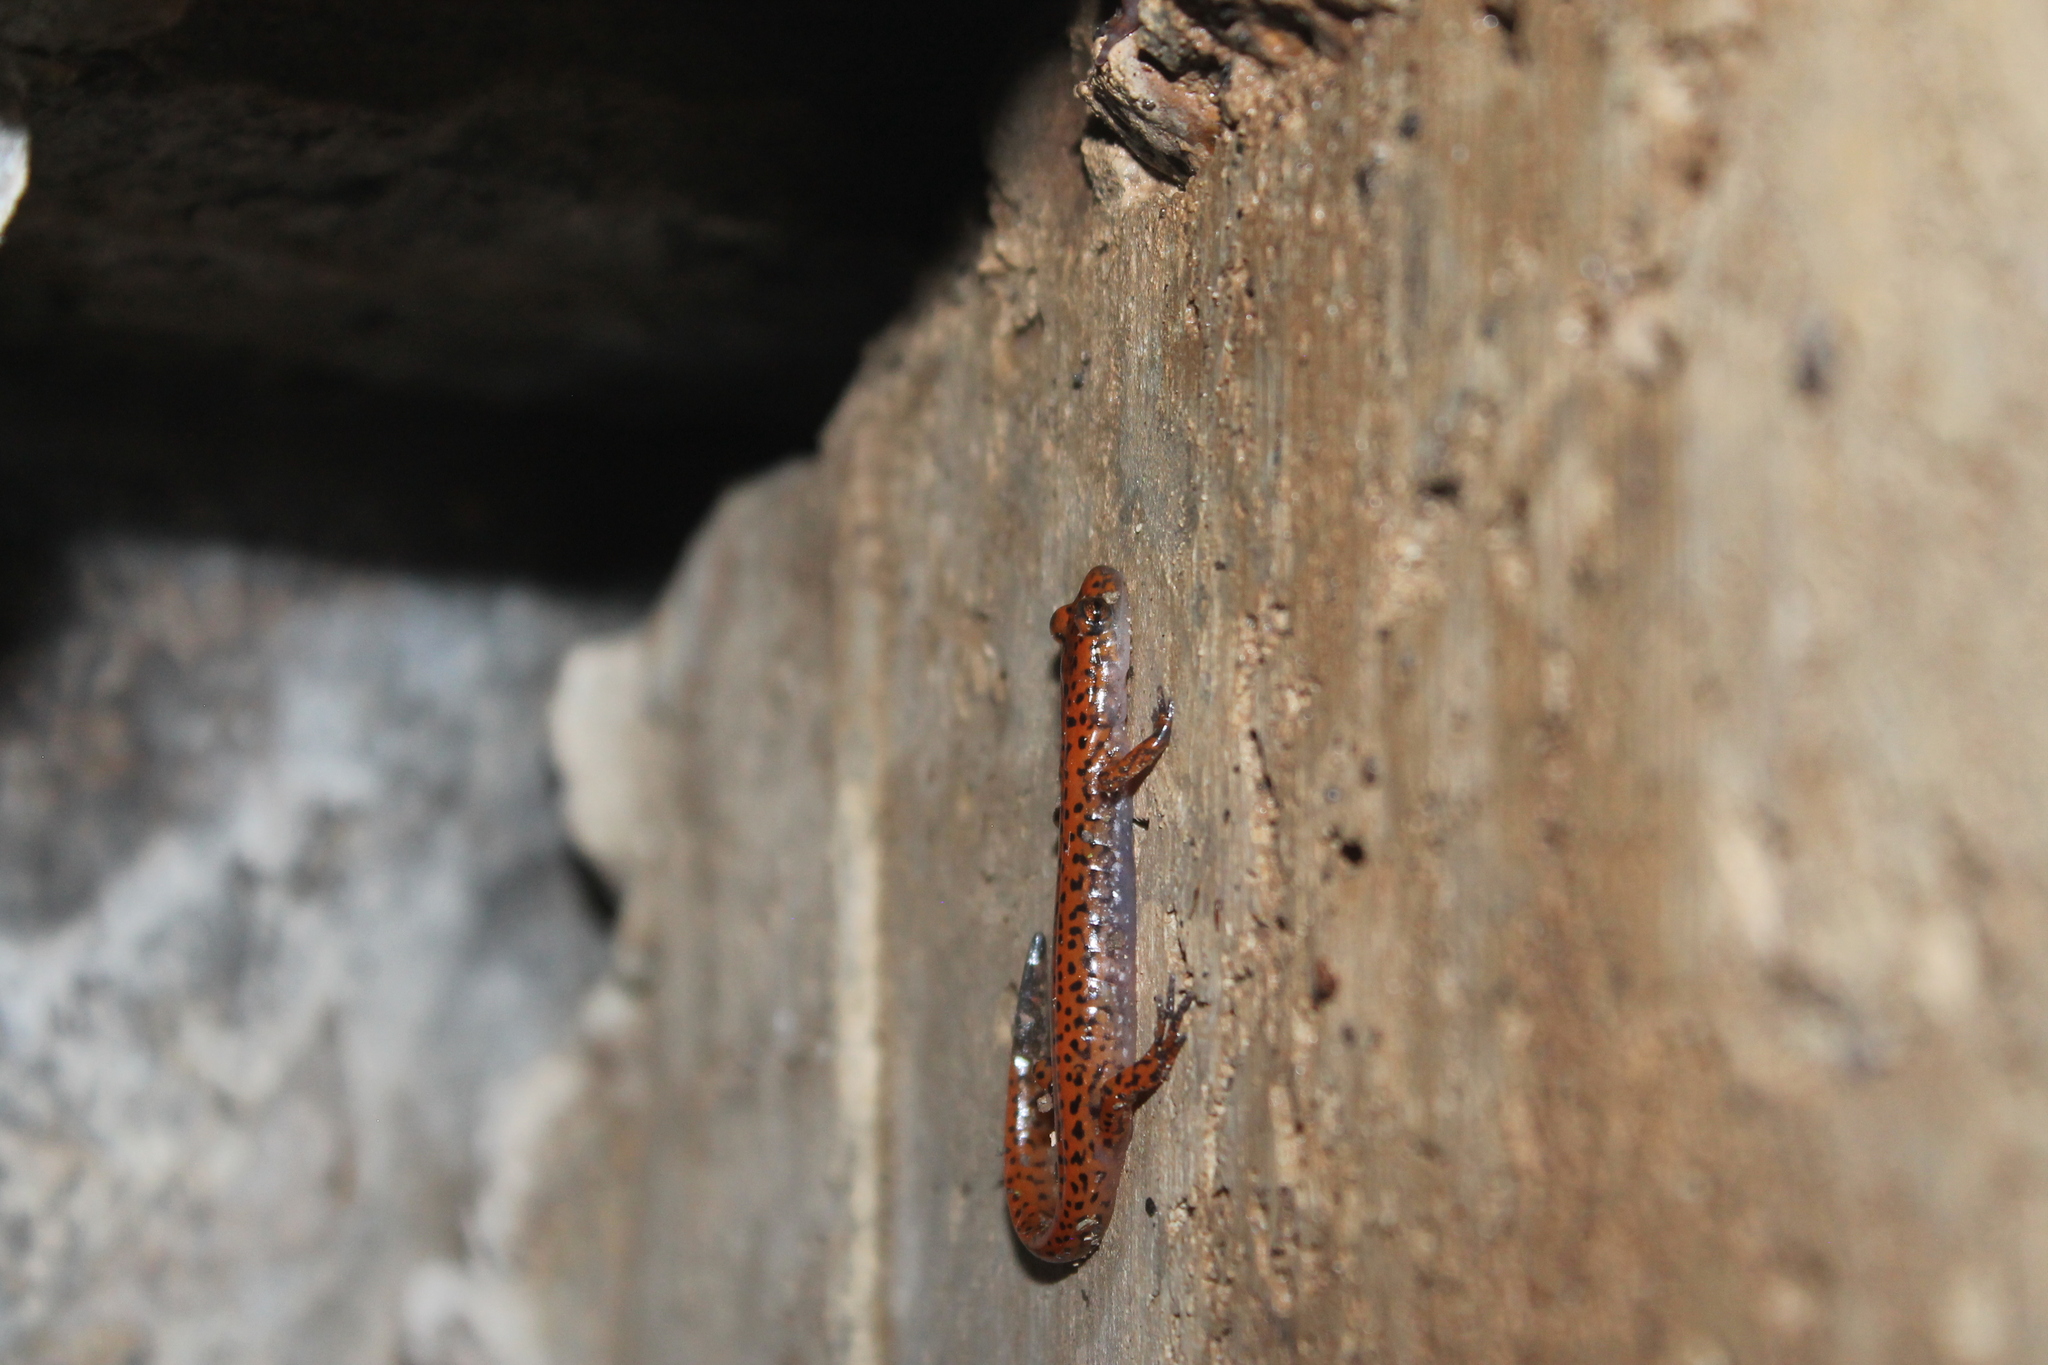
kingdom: Animalia
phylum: Chordata
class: Amphibia
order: Caudata
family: Plethodontidae
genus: Eurycea
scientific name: Eurycea lucifuga
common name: Cave salamander
